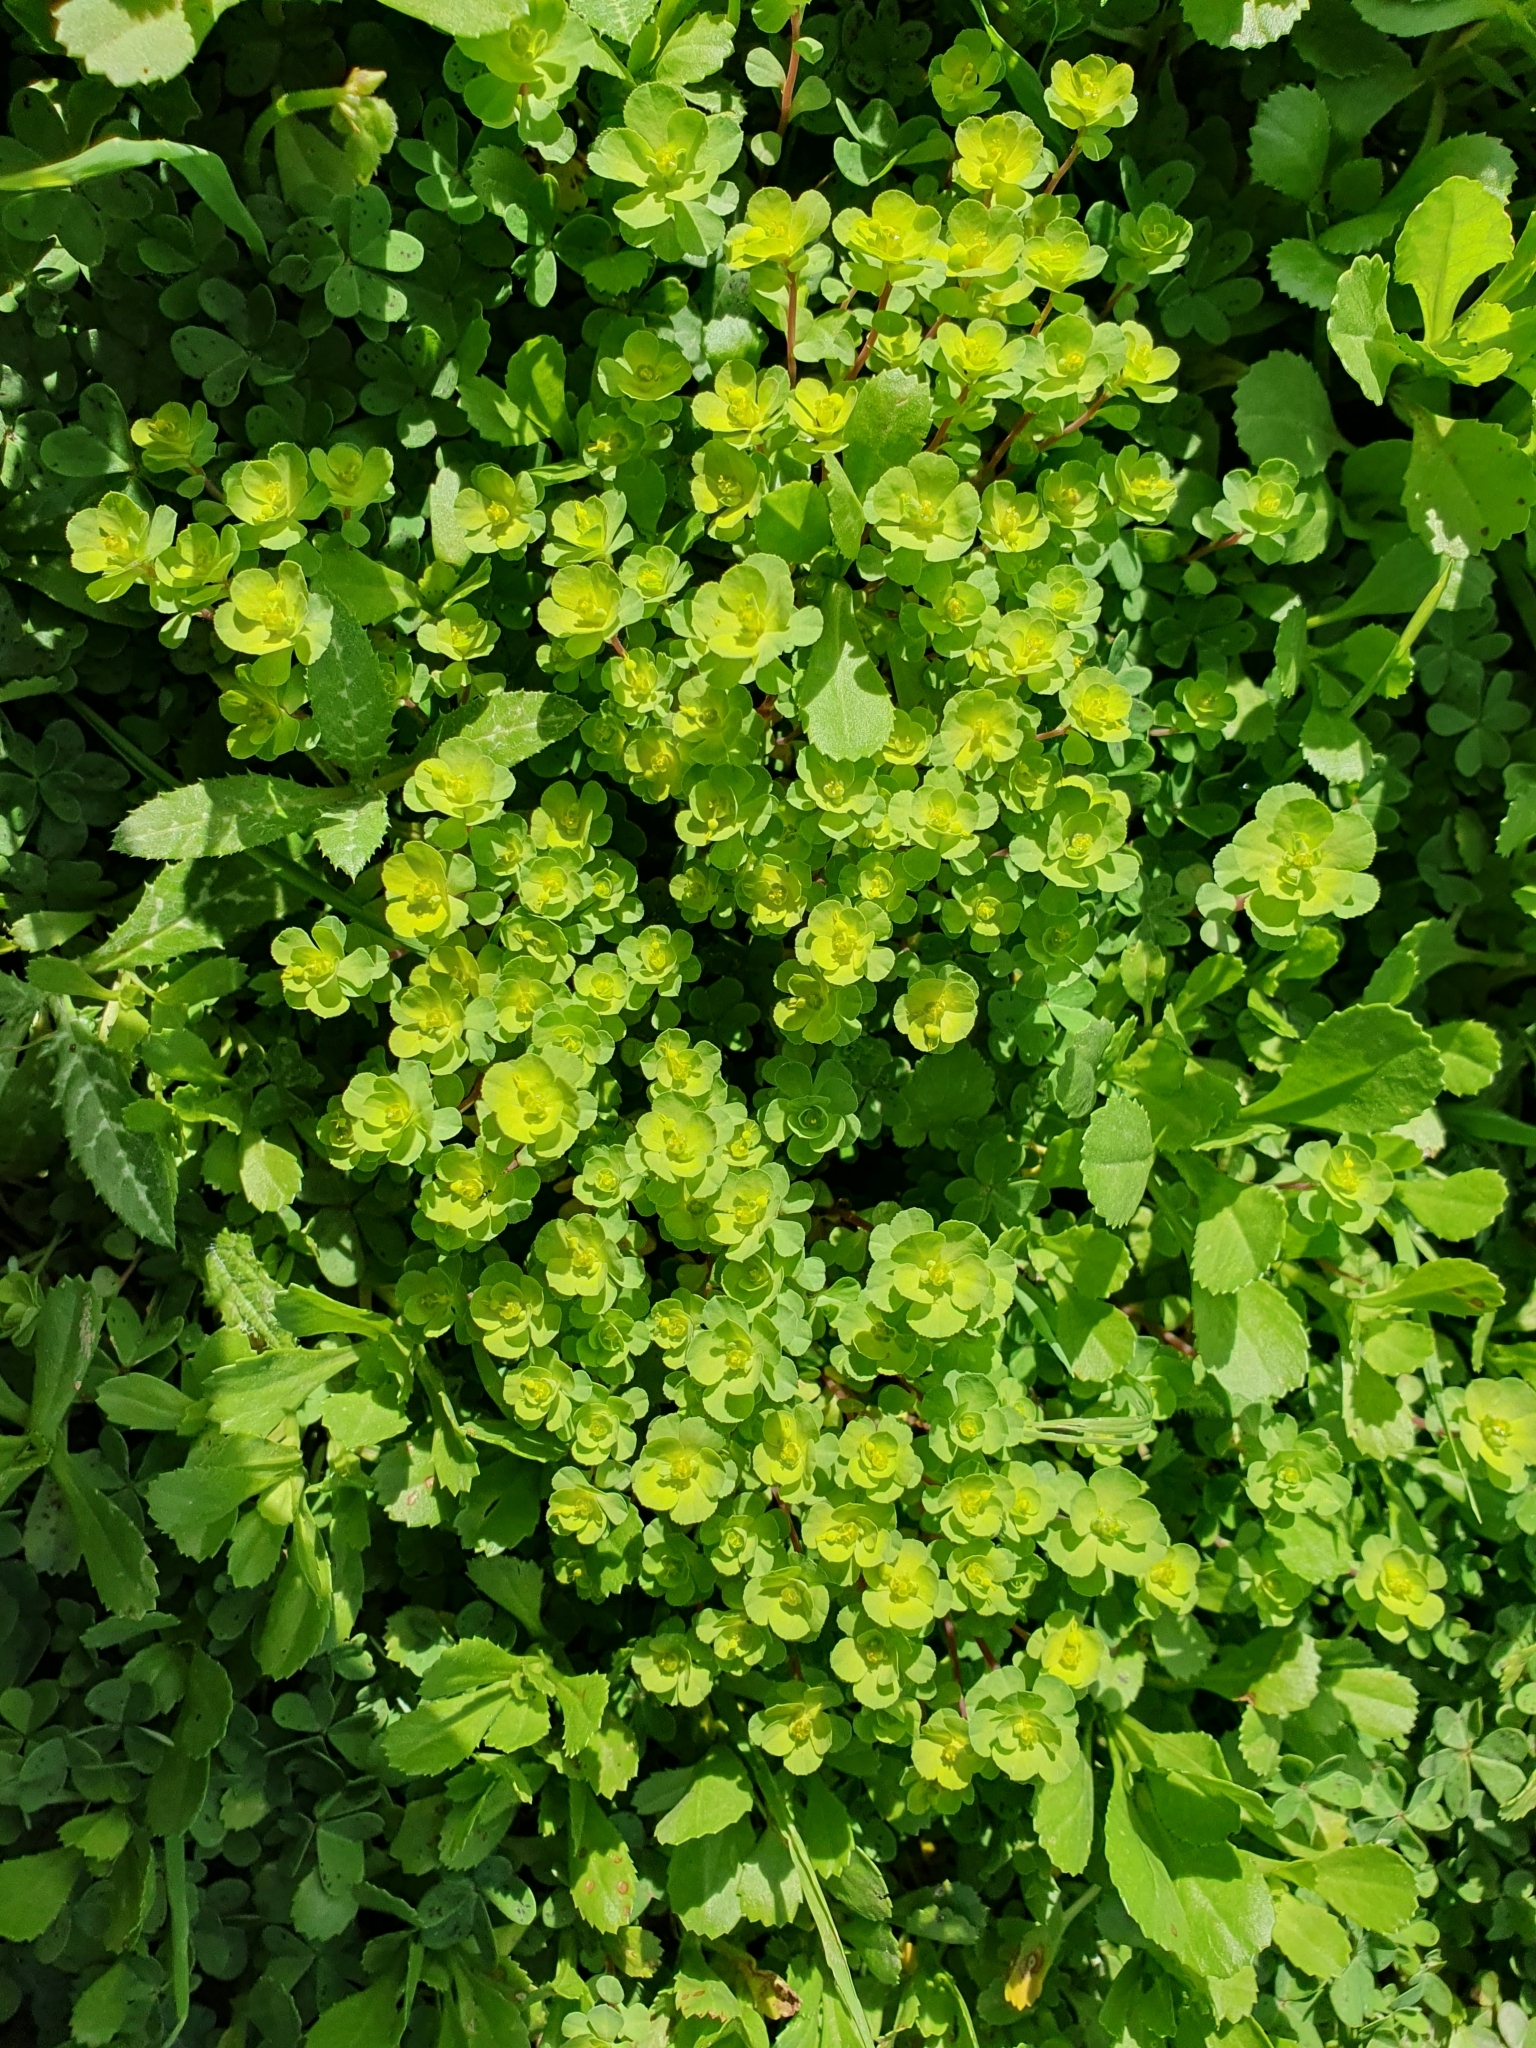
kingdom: Plantae
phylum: Tracheophyta
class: Magnoliopsida
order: Malpighiales
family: Euphorbiaceae
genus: Euphorbia
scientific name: Euphorbia helioscopia
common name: Sun spurge
